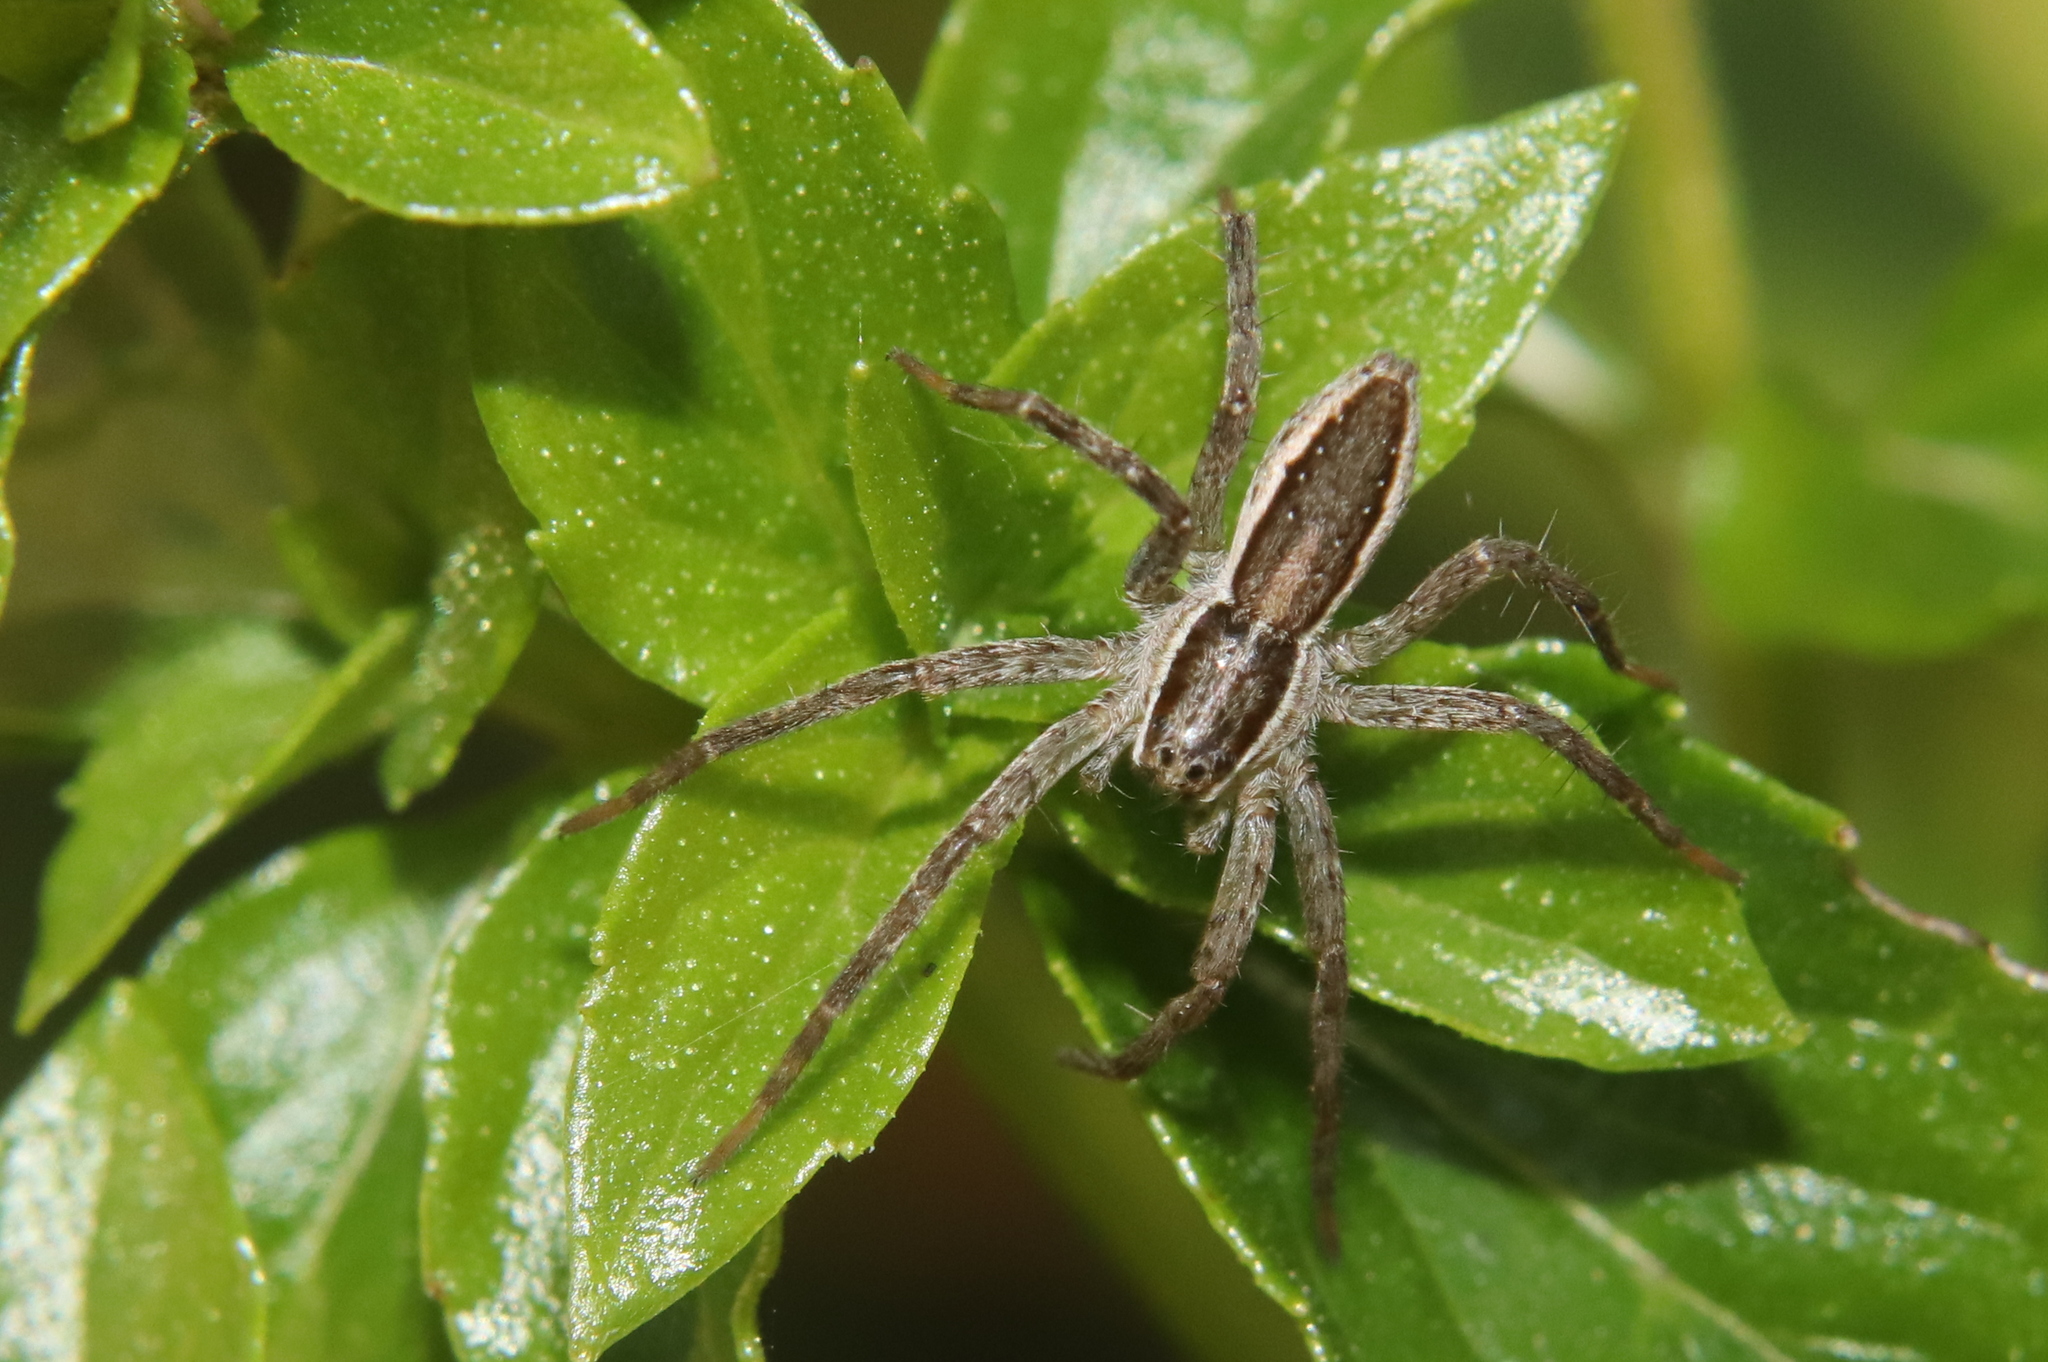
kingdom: Animalia
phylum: Arthropoda
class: Arachnida
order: Araneae
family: Pisauridae
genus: Dolomedes
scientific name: Dolomedes minor
